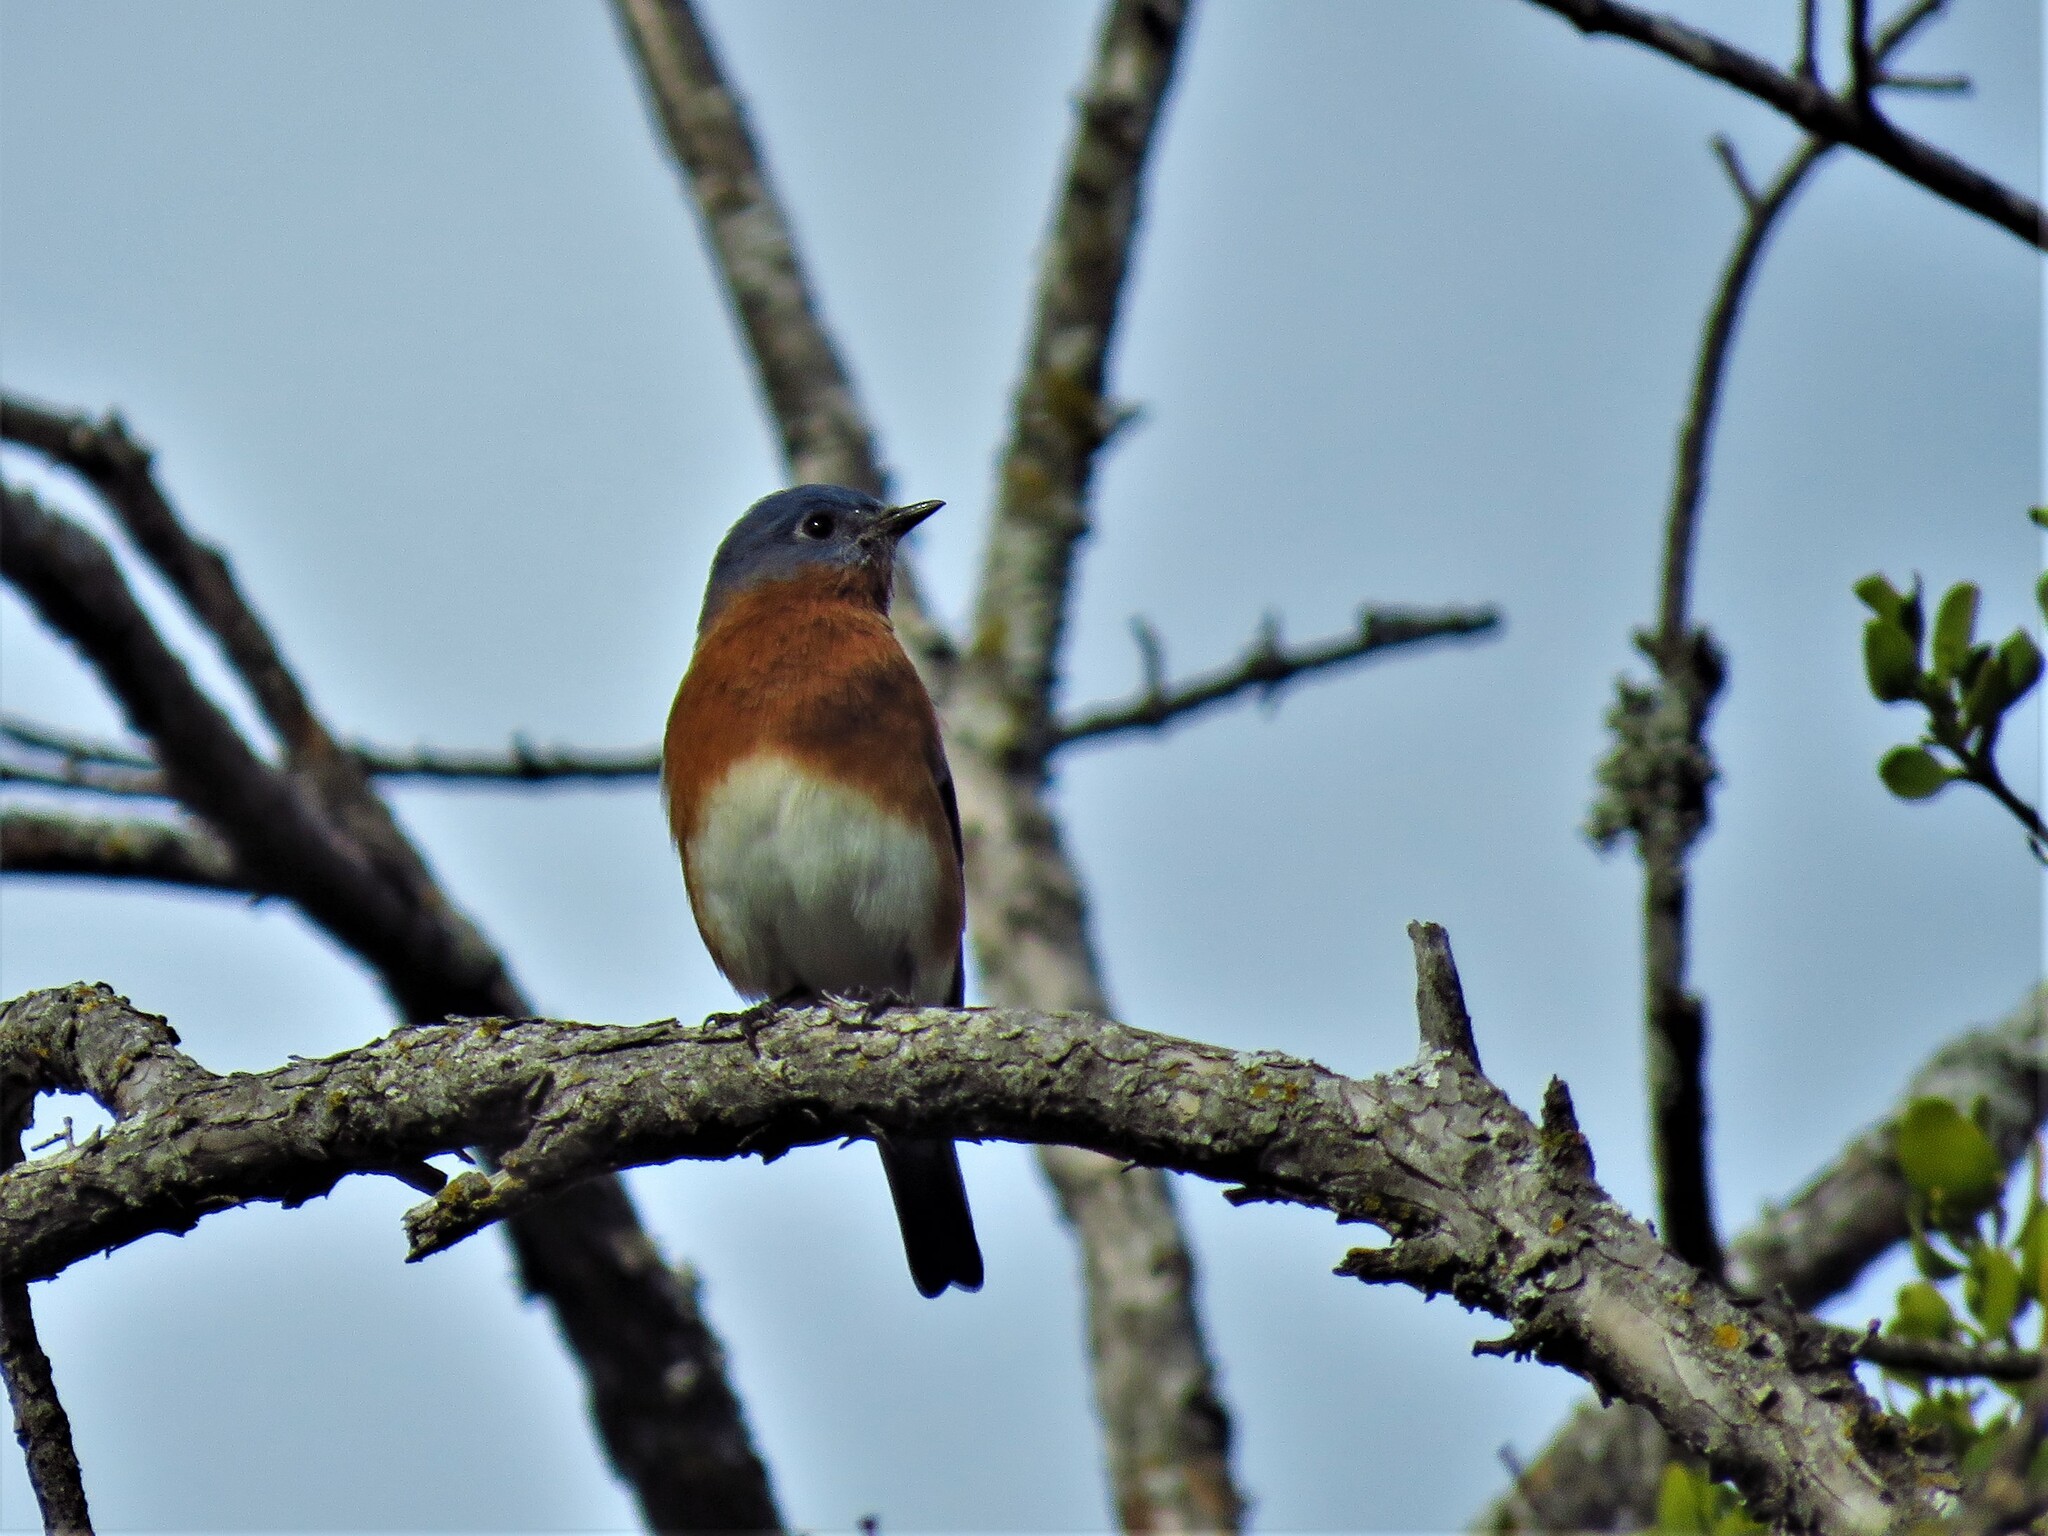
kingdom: Animalia
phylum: Chordata
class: Aves
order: Passeriformes
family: Turdidae
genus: Sialia
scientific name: Sialia sialis
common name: Eastern bluebird
